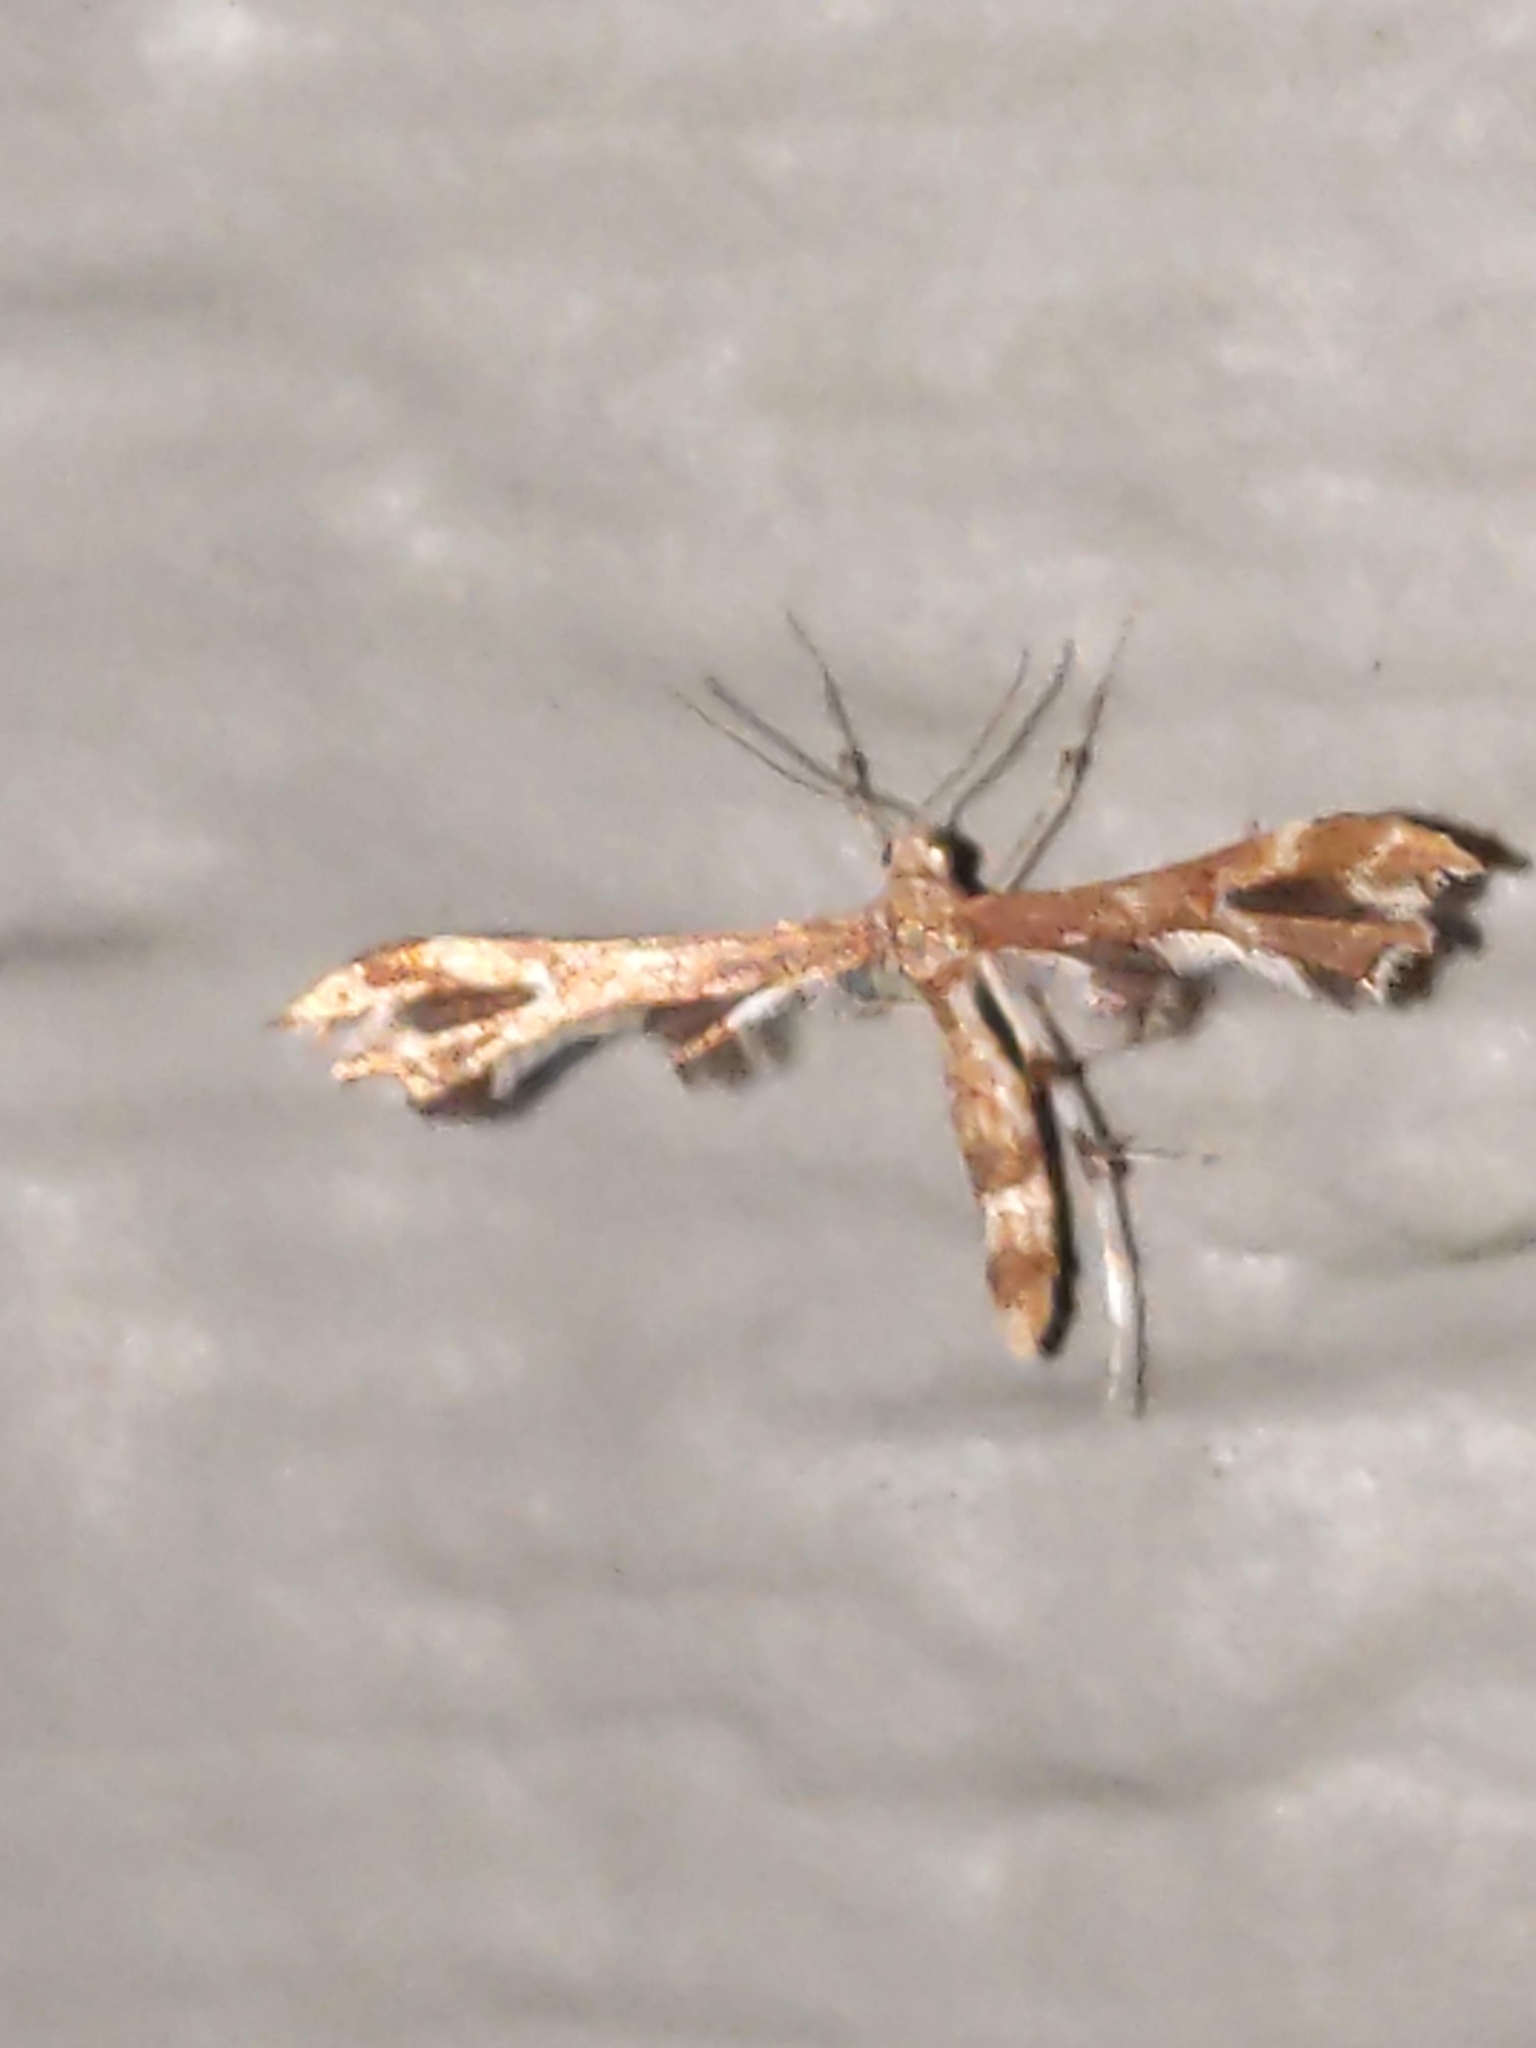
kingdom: Animalia
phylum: Arthropoda
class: Insecta
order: Lepidoptera
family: Pterophoridae
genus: Geina
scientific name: Geina
